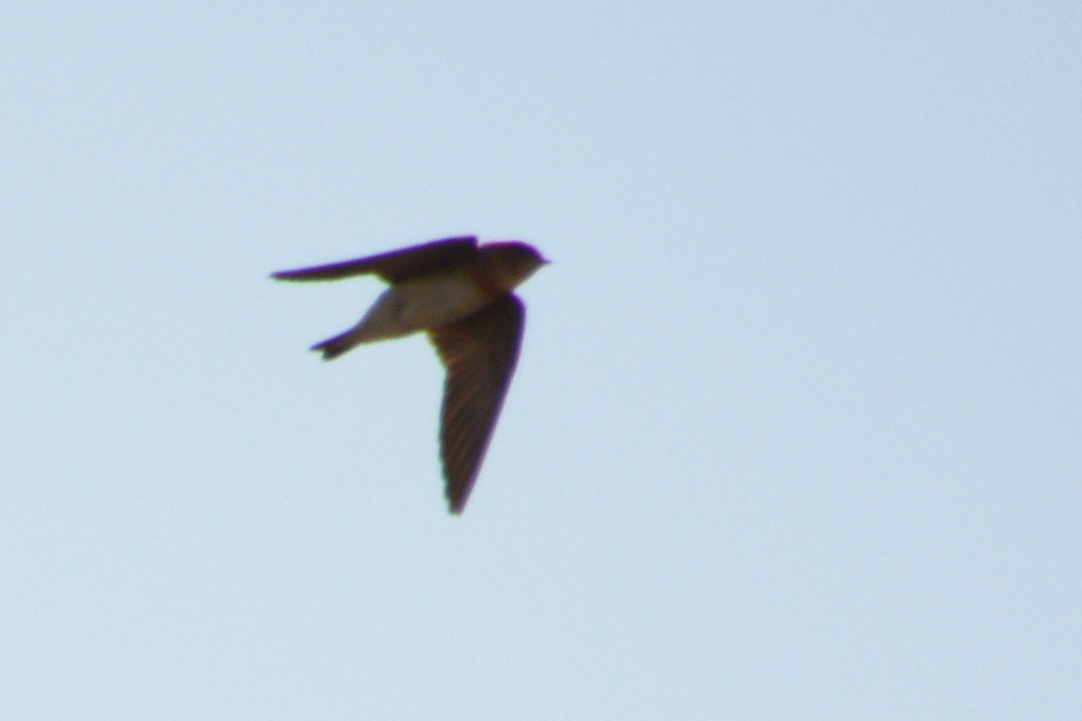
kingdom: Animalia
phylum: Chordata
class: Aves
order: Passeriformes
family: Hirundinidae
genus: Alopochelidon
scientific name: Alopochelidon fucata
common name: Tawny-headed swallow
